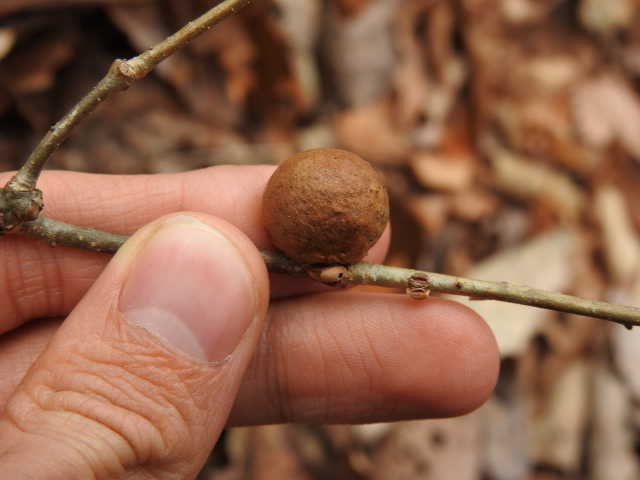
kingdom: Animalia
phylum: Arthropoda
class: Insecta
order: Hymenoptera
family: Cynipidae
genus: Disholcaspis
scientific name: Disholcaspis quercusglobulus
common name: Round bullet gall wasp
